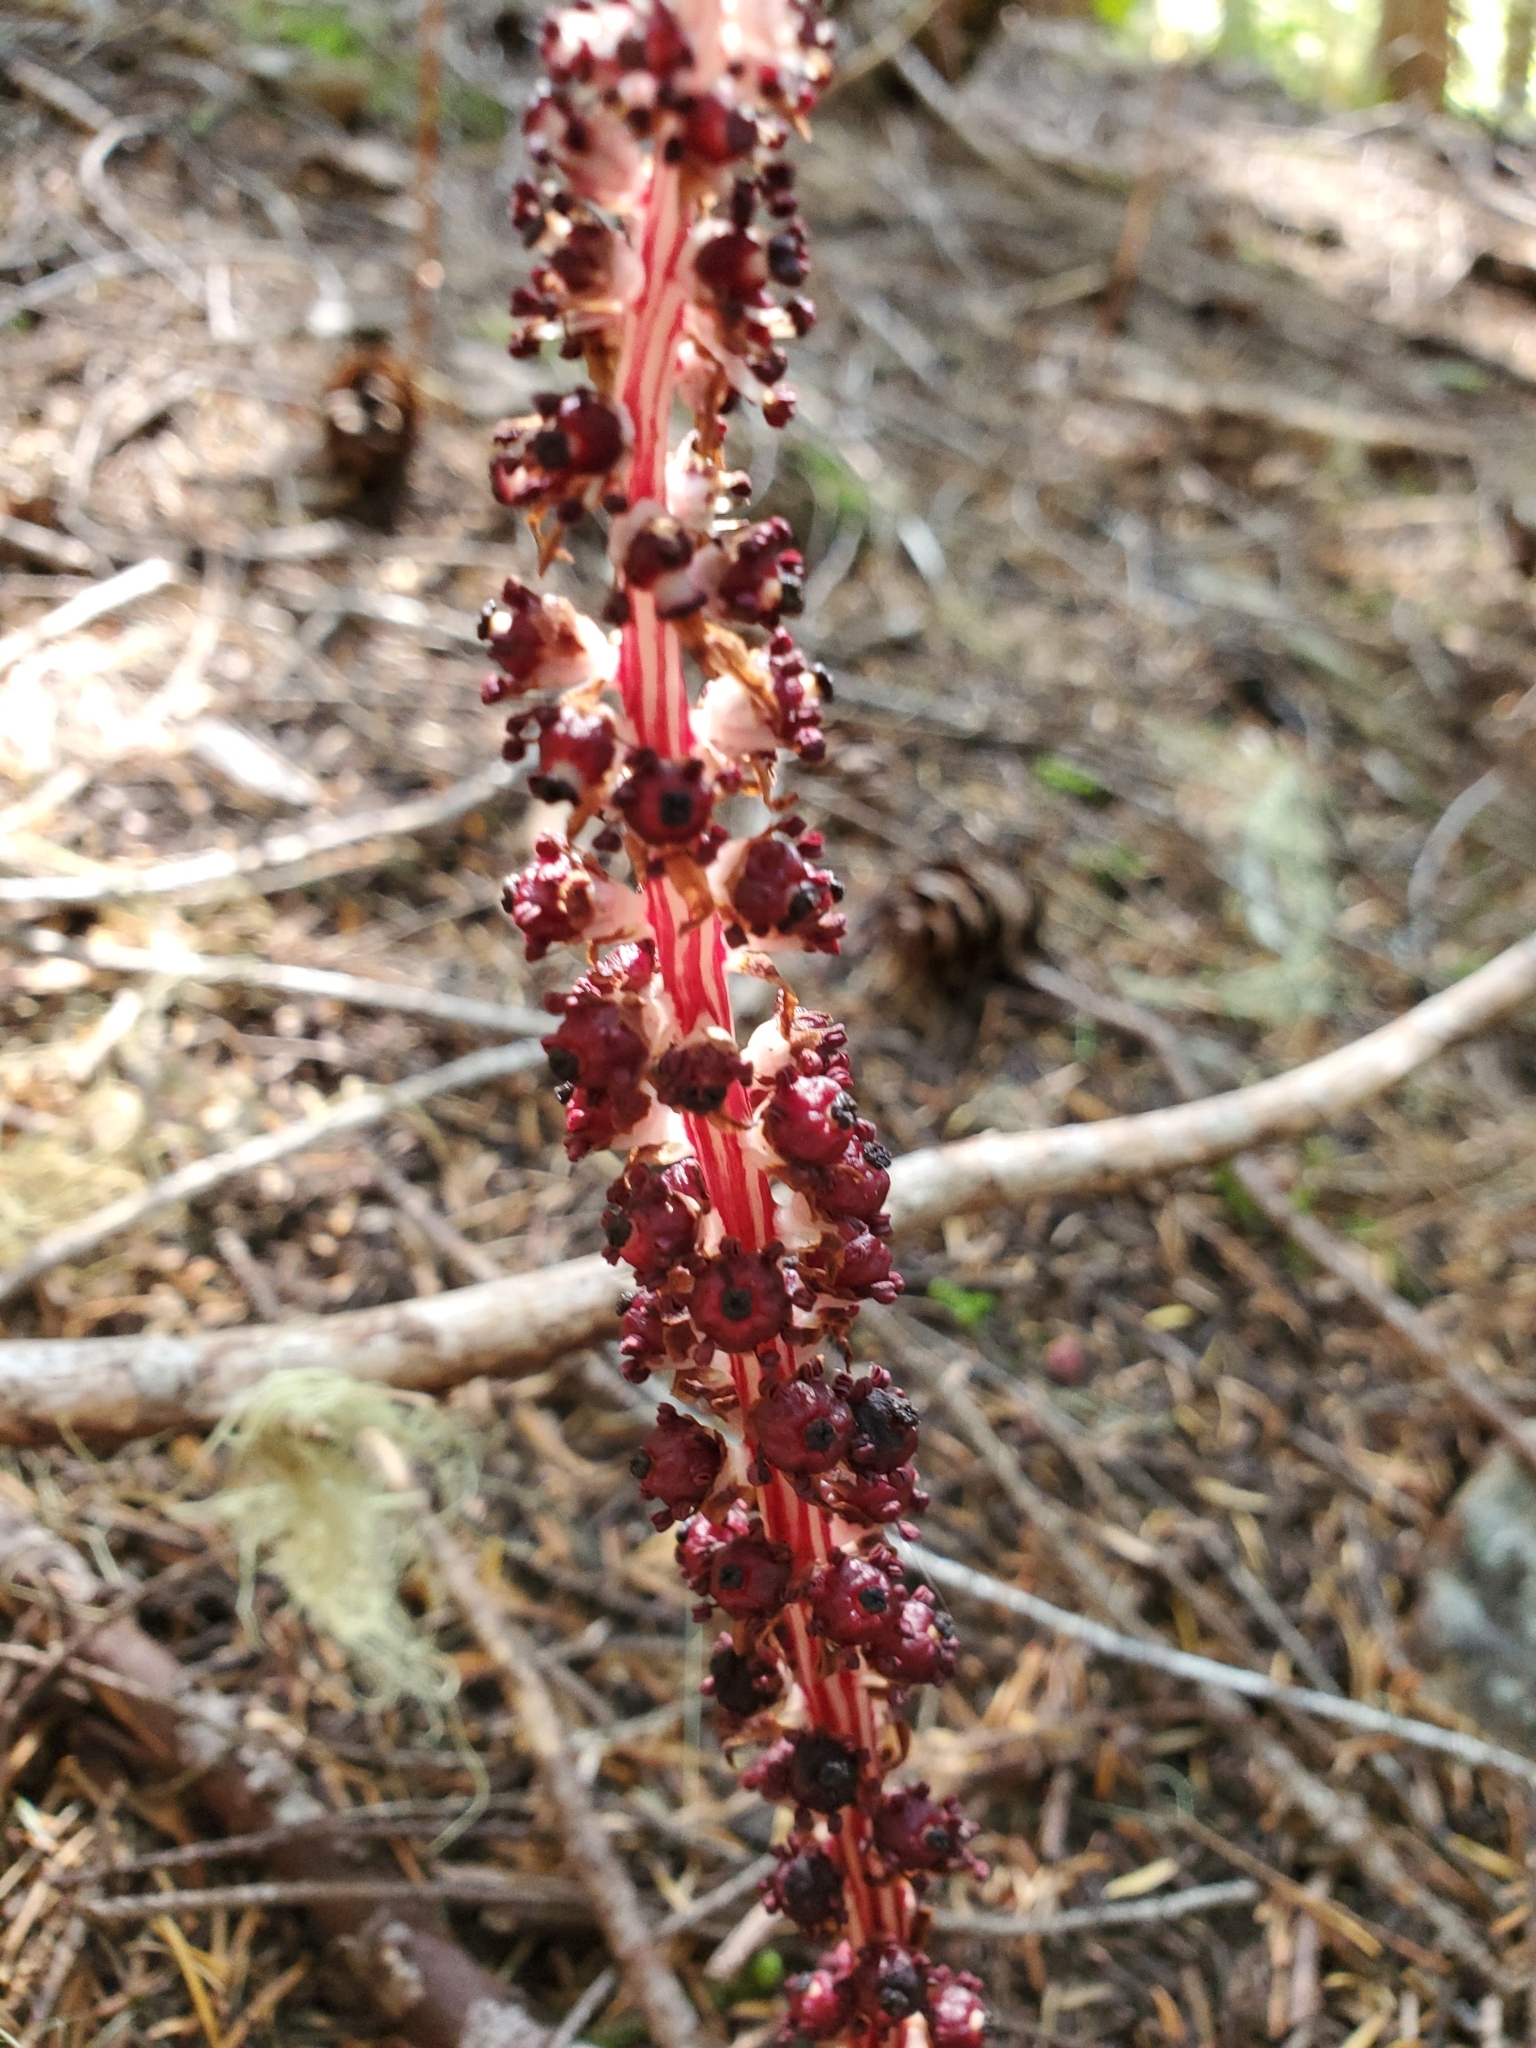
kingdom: Plantae
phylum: Tracheophyta
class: Magnoliopsida
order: Ericales
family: Ericaceae
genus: Allotropa
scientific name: Allotropa virgata
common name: Candy-striped allotropa
